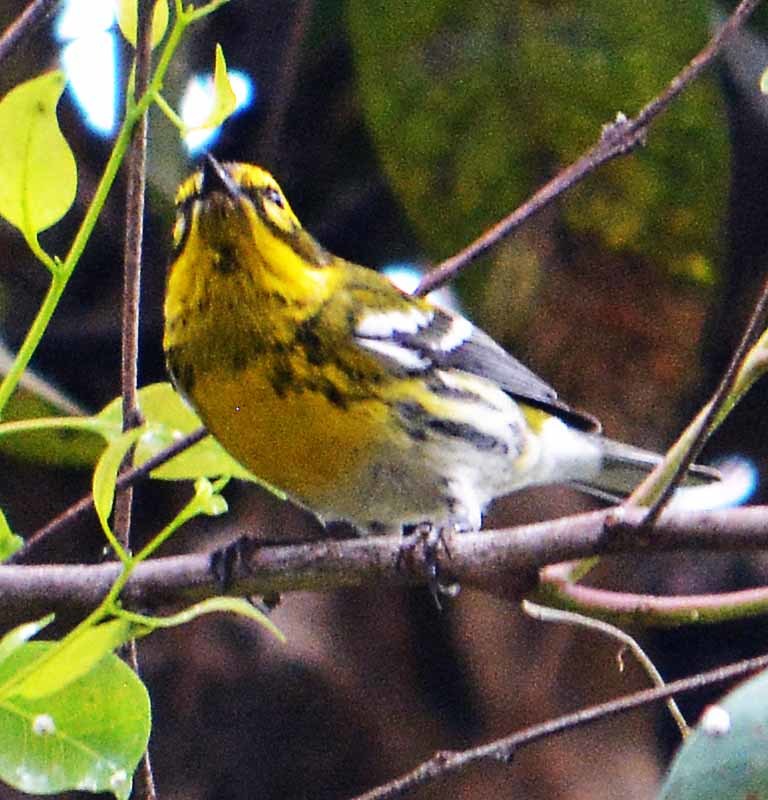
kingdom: Animalia
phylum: Chordata
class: Aves
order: Passeriformes
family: Parulidae
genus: Setophaga
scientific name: Setophaga townsendi
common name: Townsend's warbler
